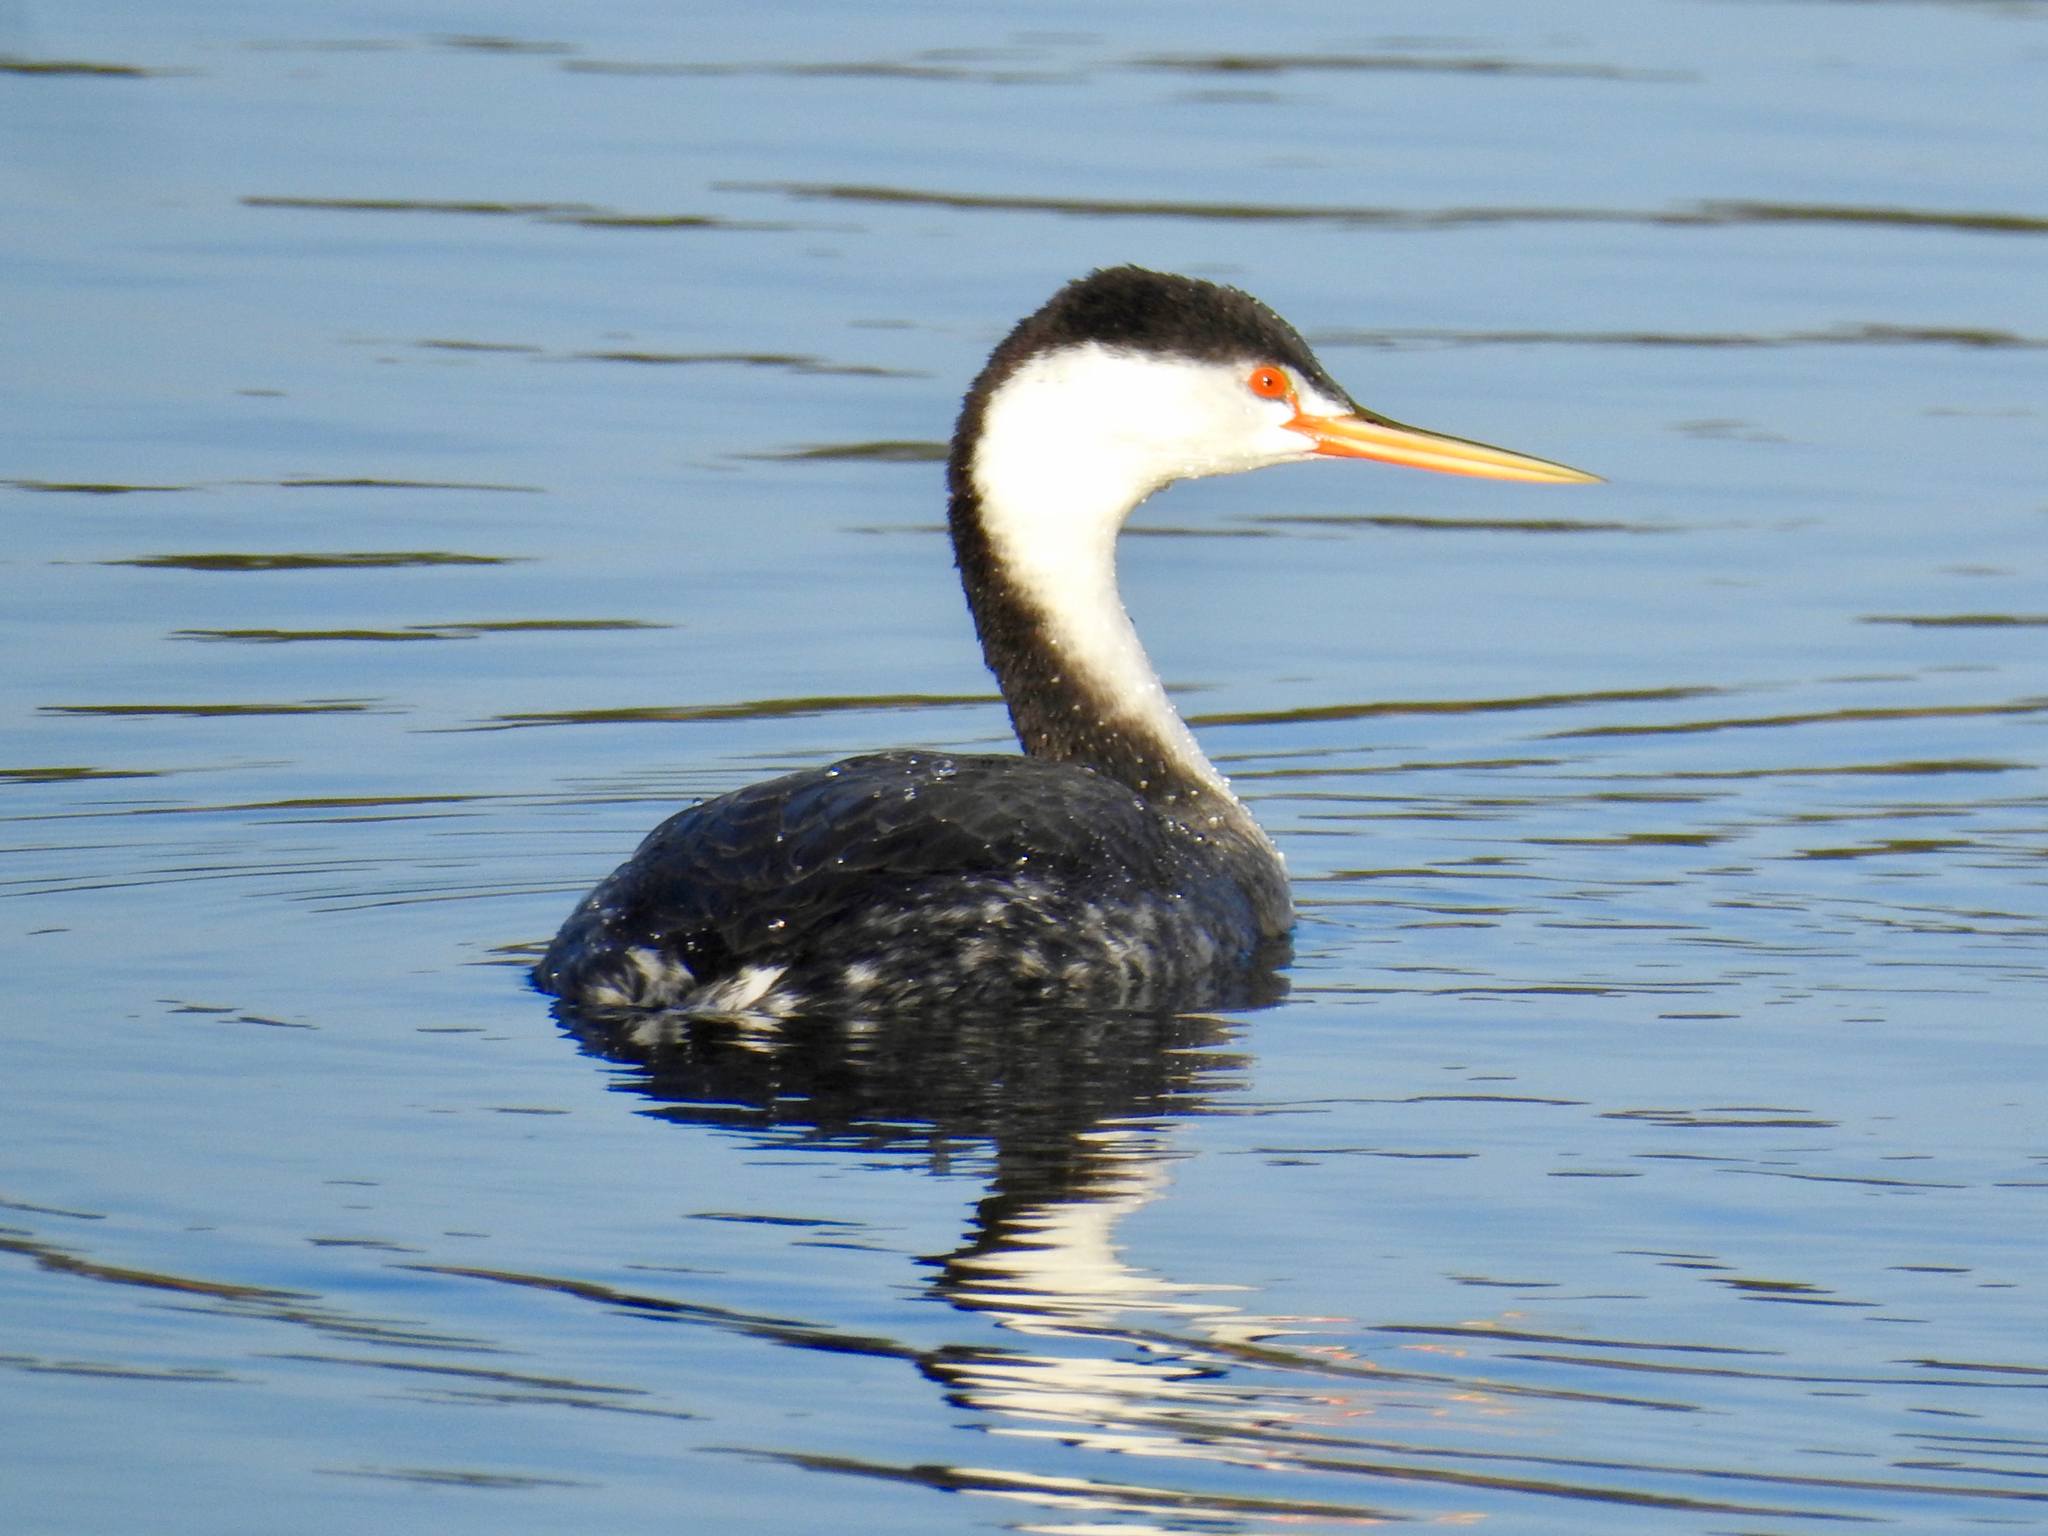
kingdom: Animalia
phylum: Chordata
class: Aves
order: Podicipediformes
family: Podicipedidae
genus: Aechmophorus
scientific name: Aechmophorus clarkii
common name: Clark's grebe
